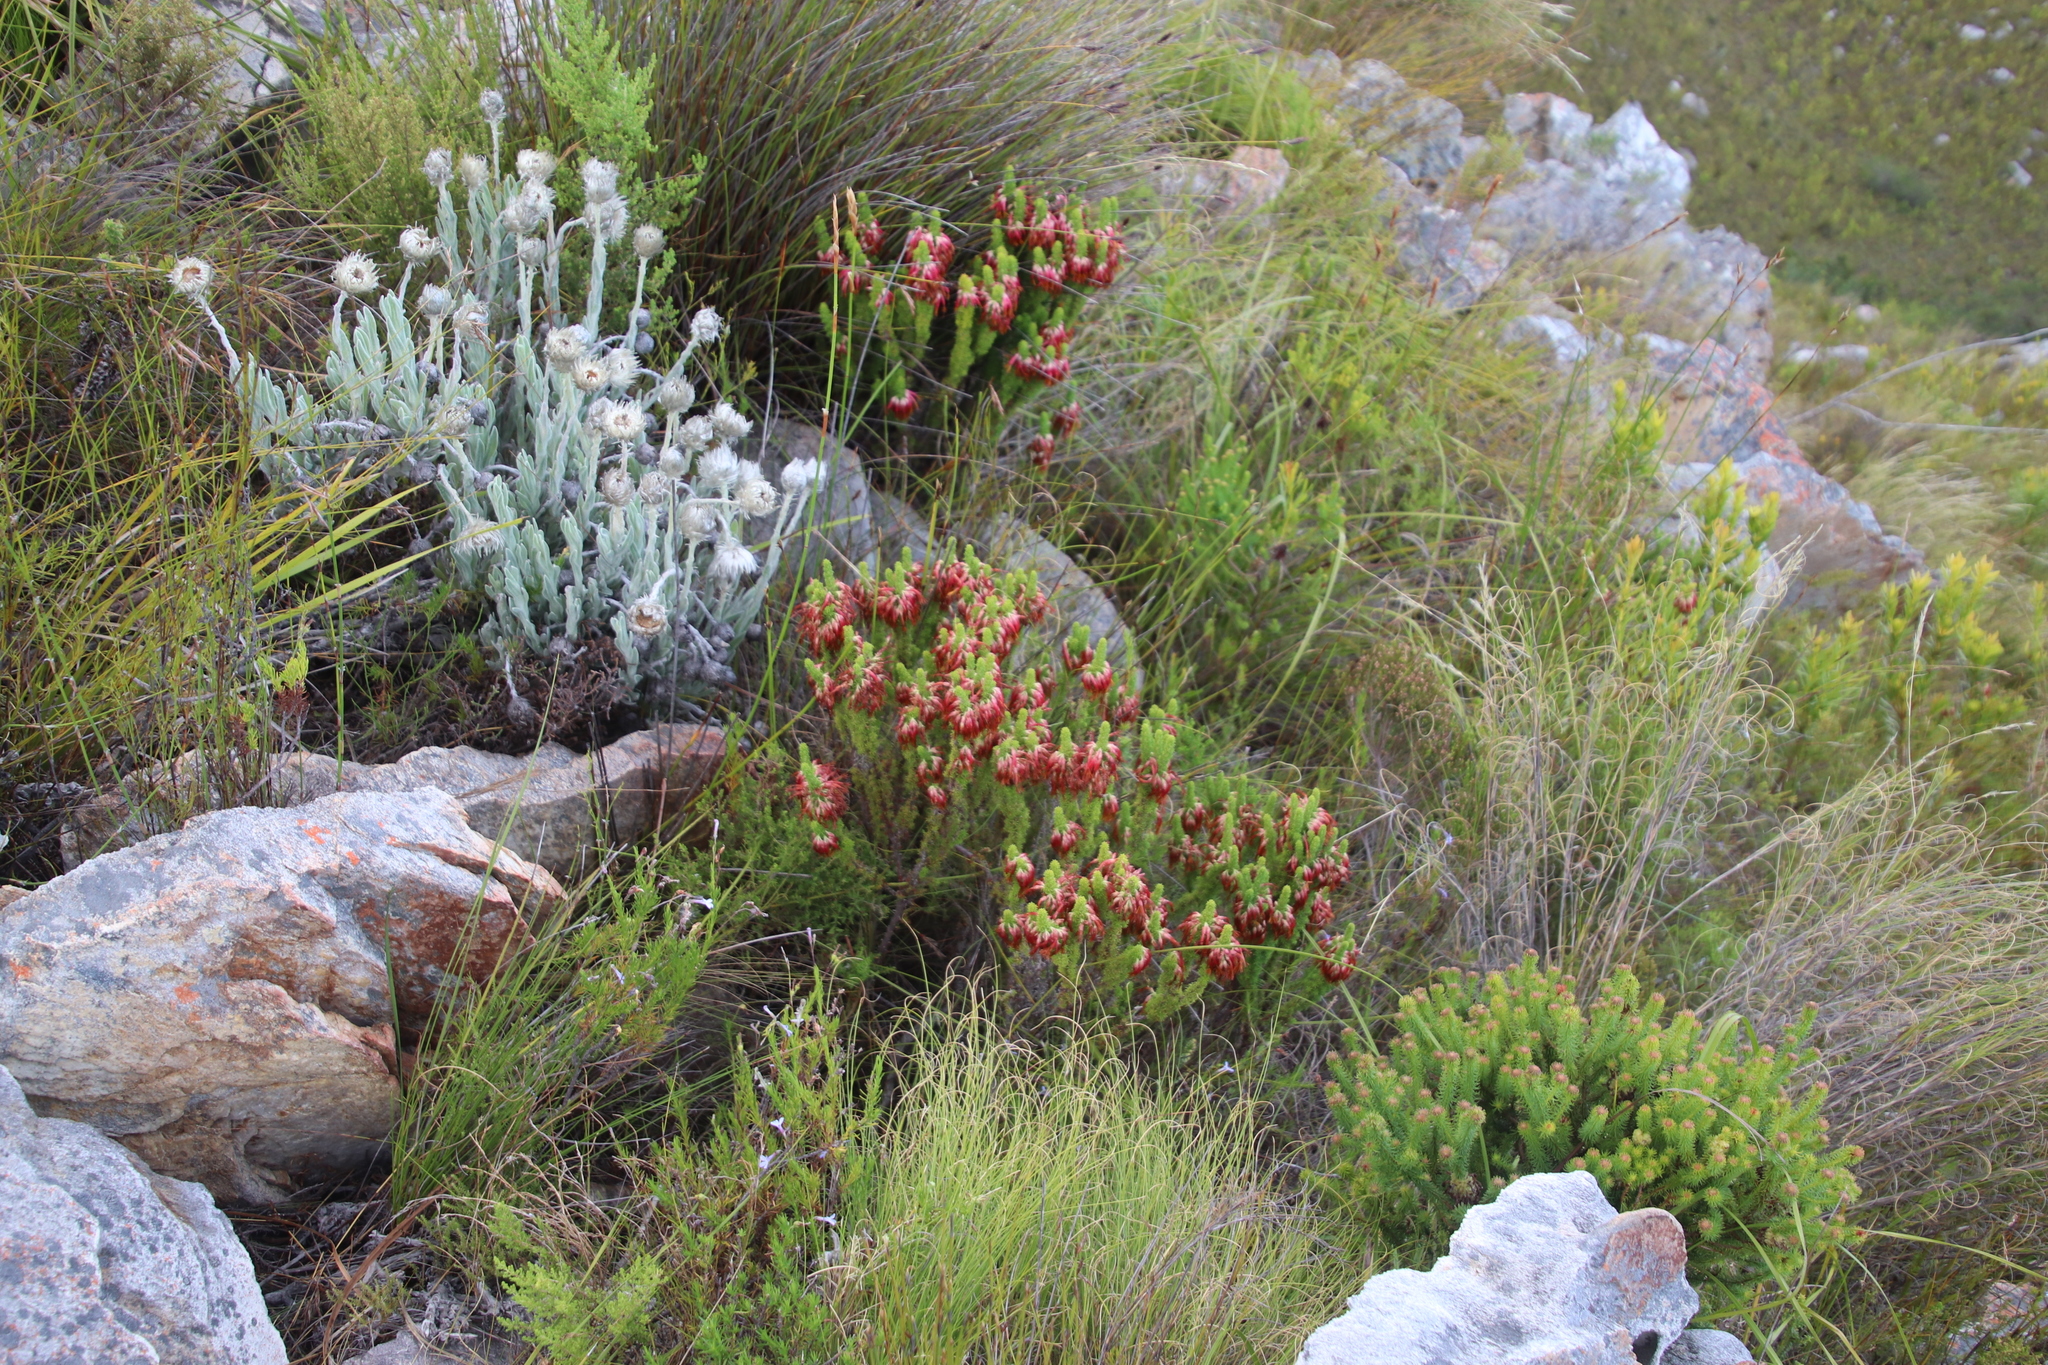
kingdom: Plantae
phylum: Tracheophyta
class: Magnoliopsida
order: Ericales
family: Ericaceae
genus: Erica
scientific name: Erica coccinea
